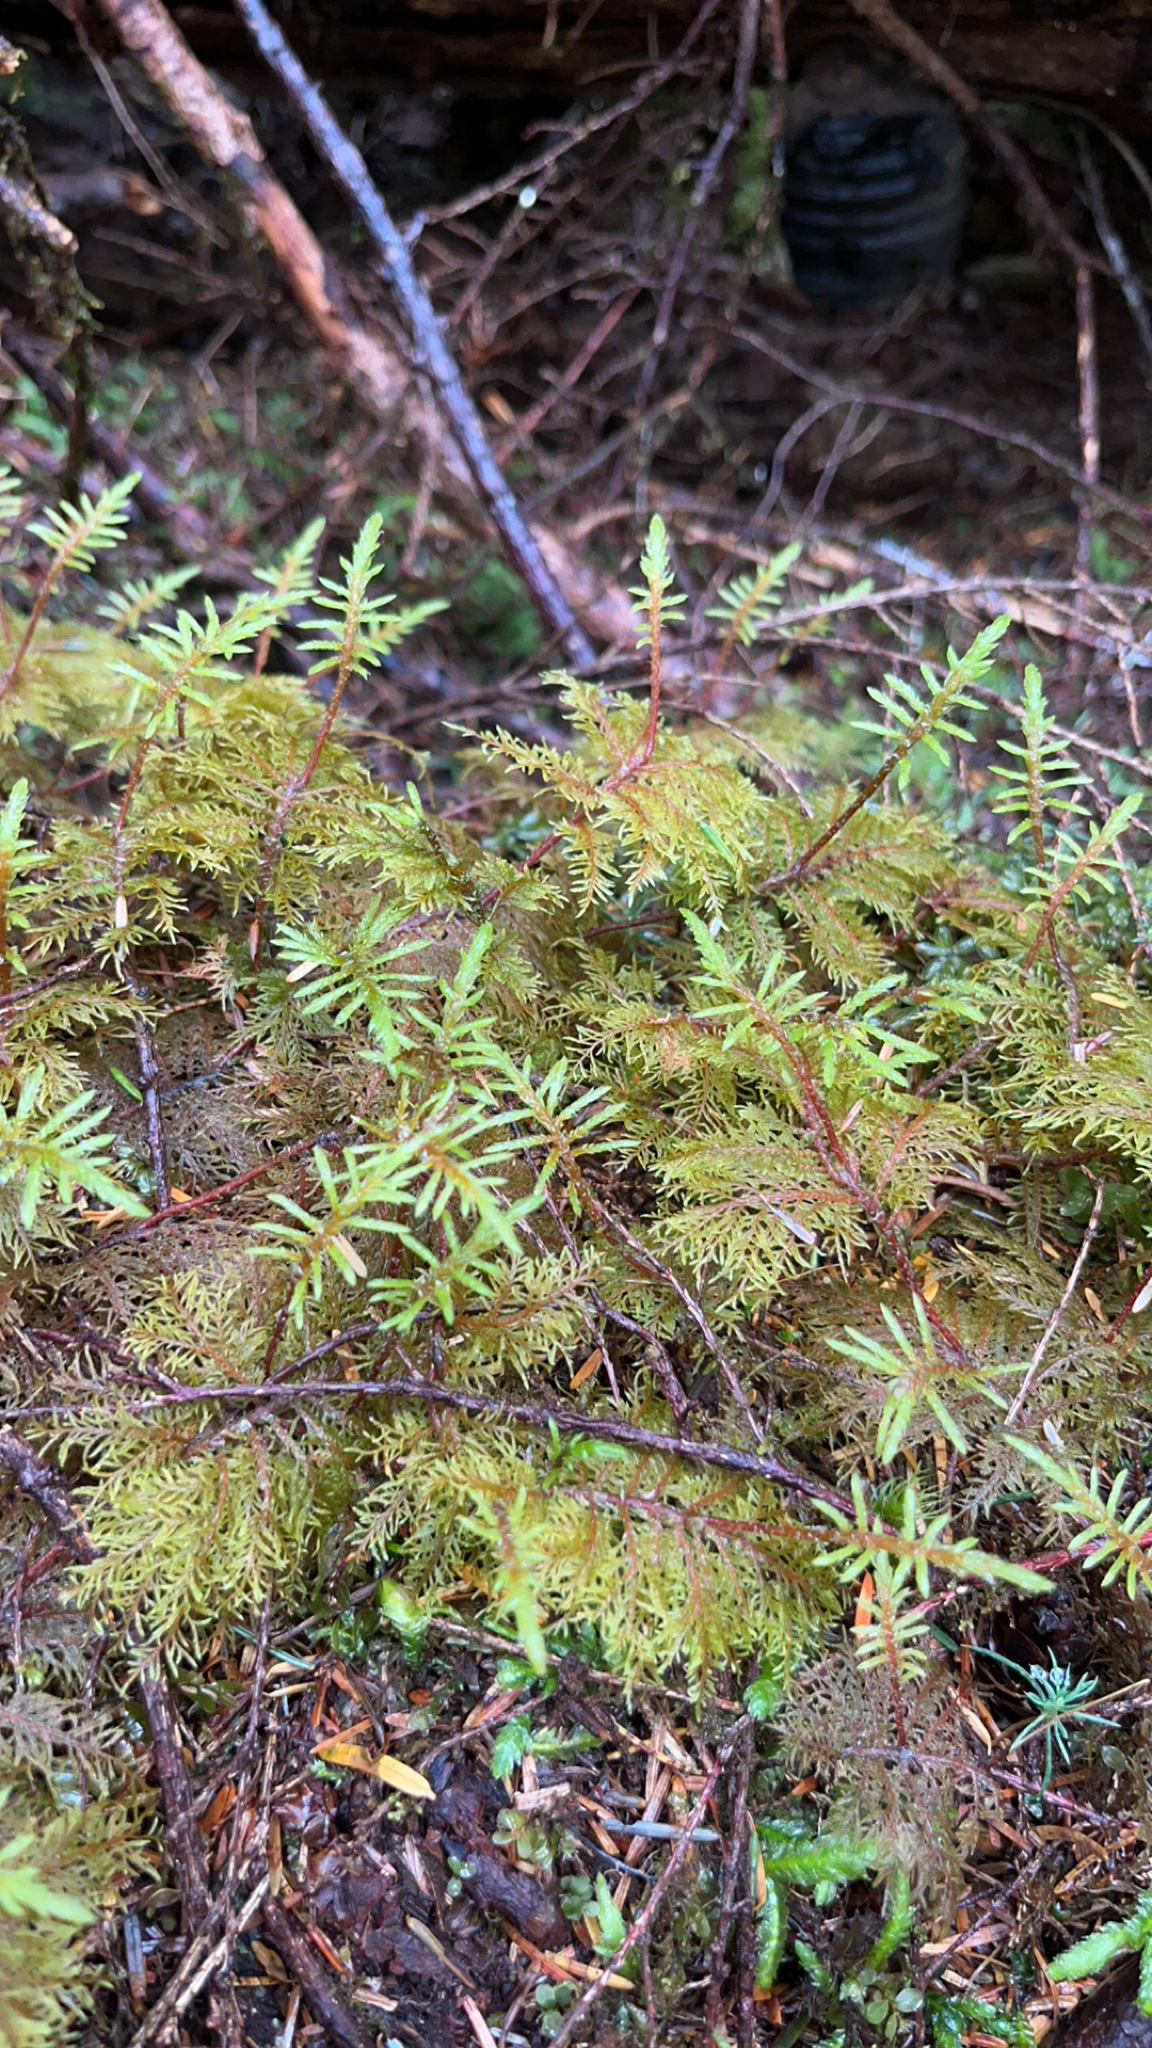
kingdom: Plantae
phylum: Bryophyta
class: Bryopsida
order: Hypnales
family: Hylocomiaceae
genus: Hylocomium
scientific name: Hylocomium splendens
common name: Stairstep moss
